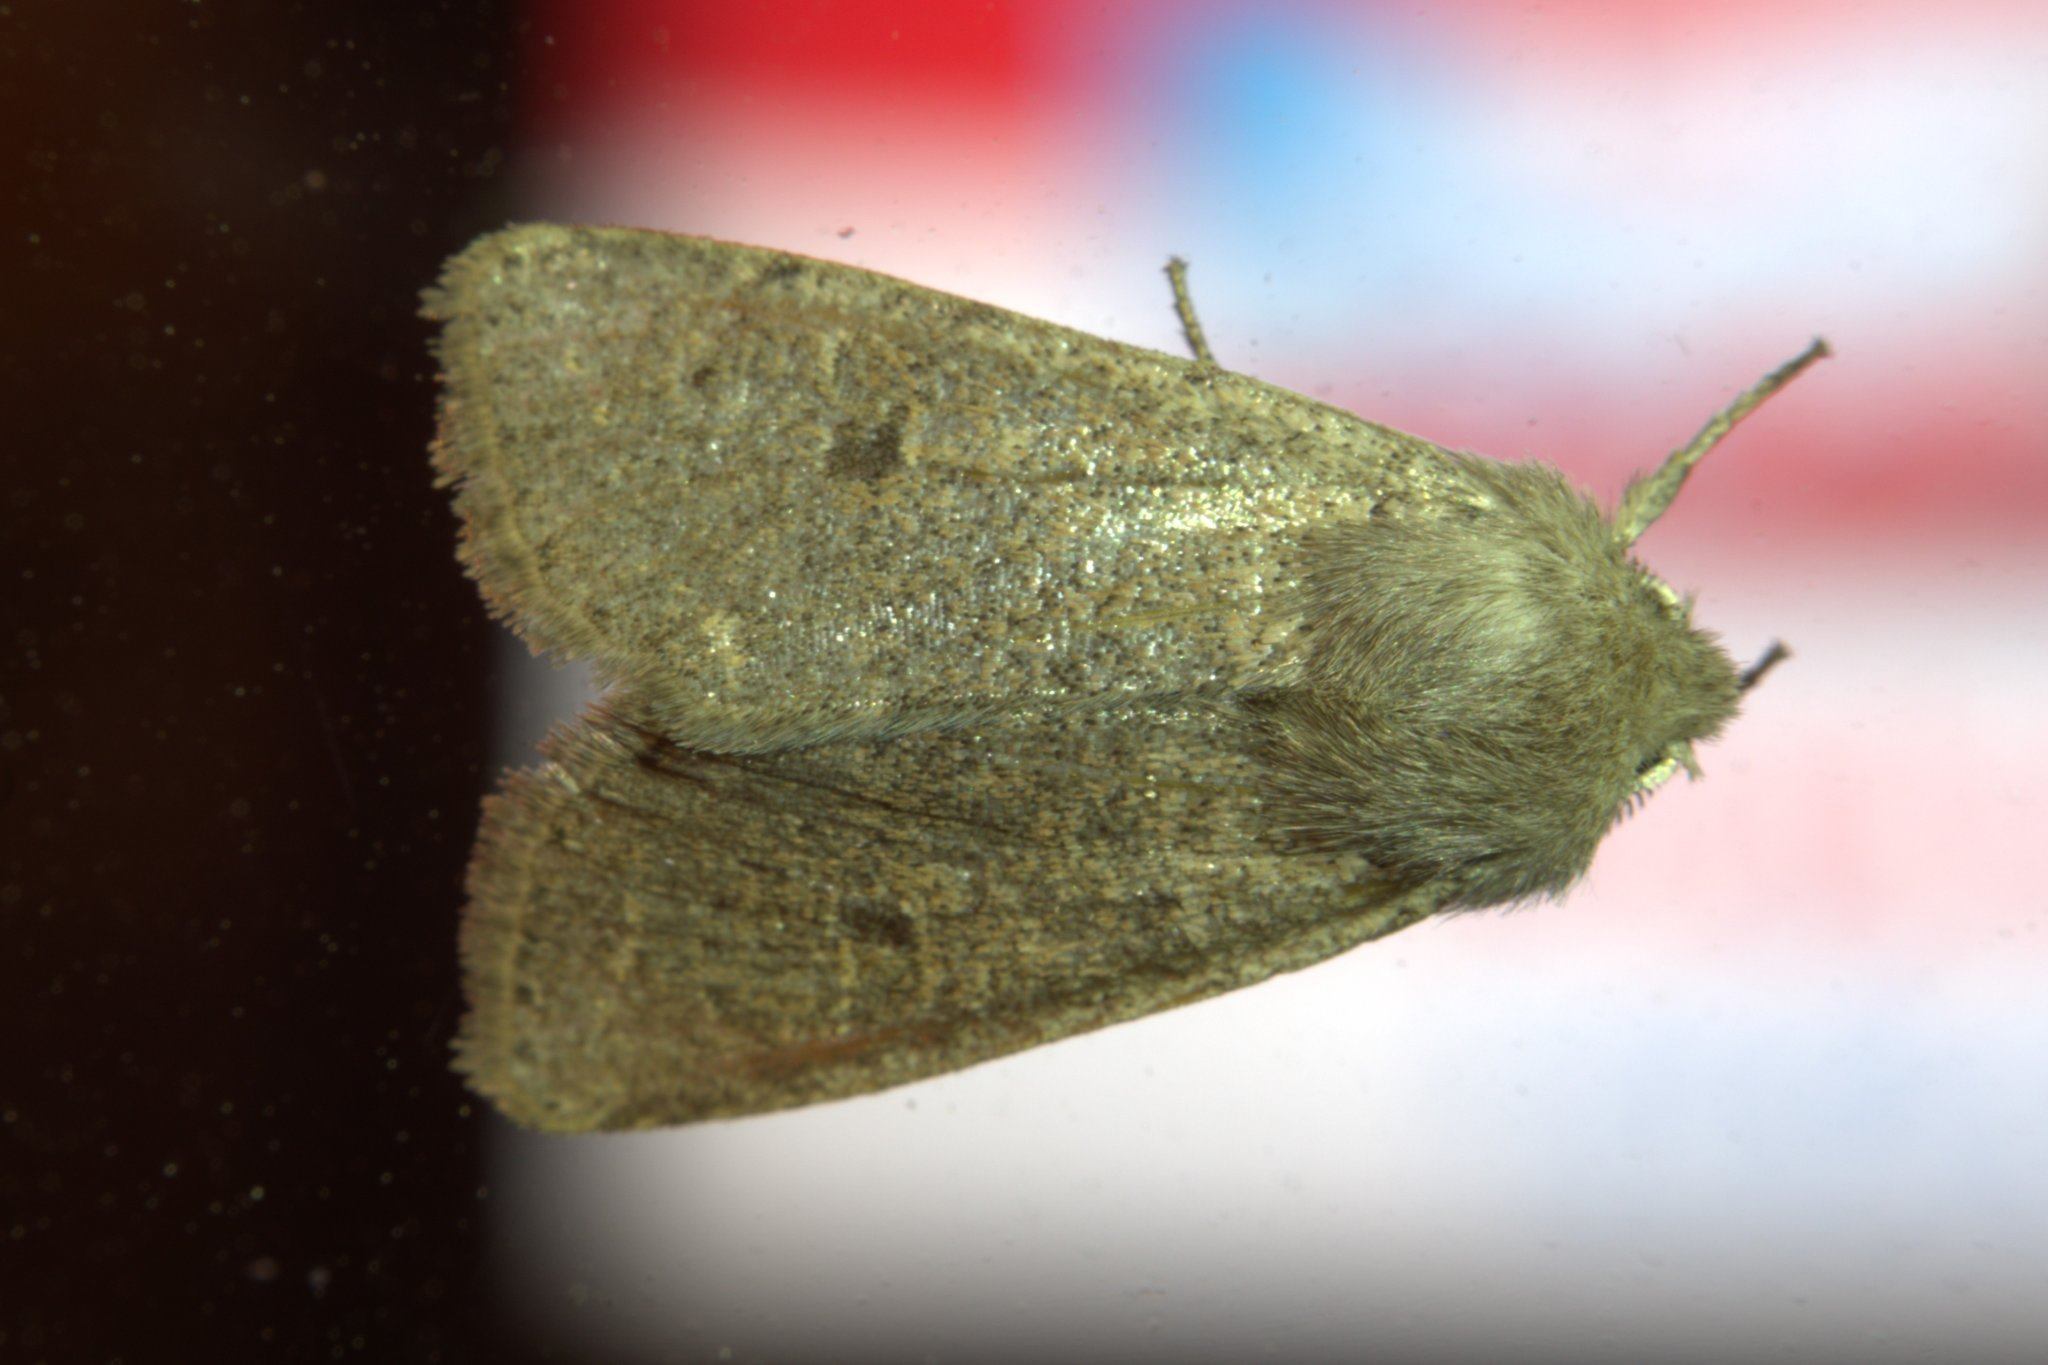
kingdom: Animalia
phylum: Arthropoda
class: Insecta
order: Lepidoptera
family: Noctuidae
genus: Orthosia
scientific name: Orthosia cruda
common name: Small quaker
